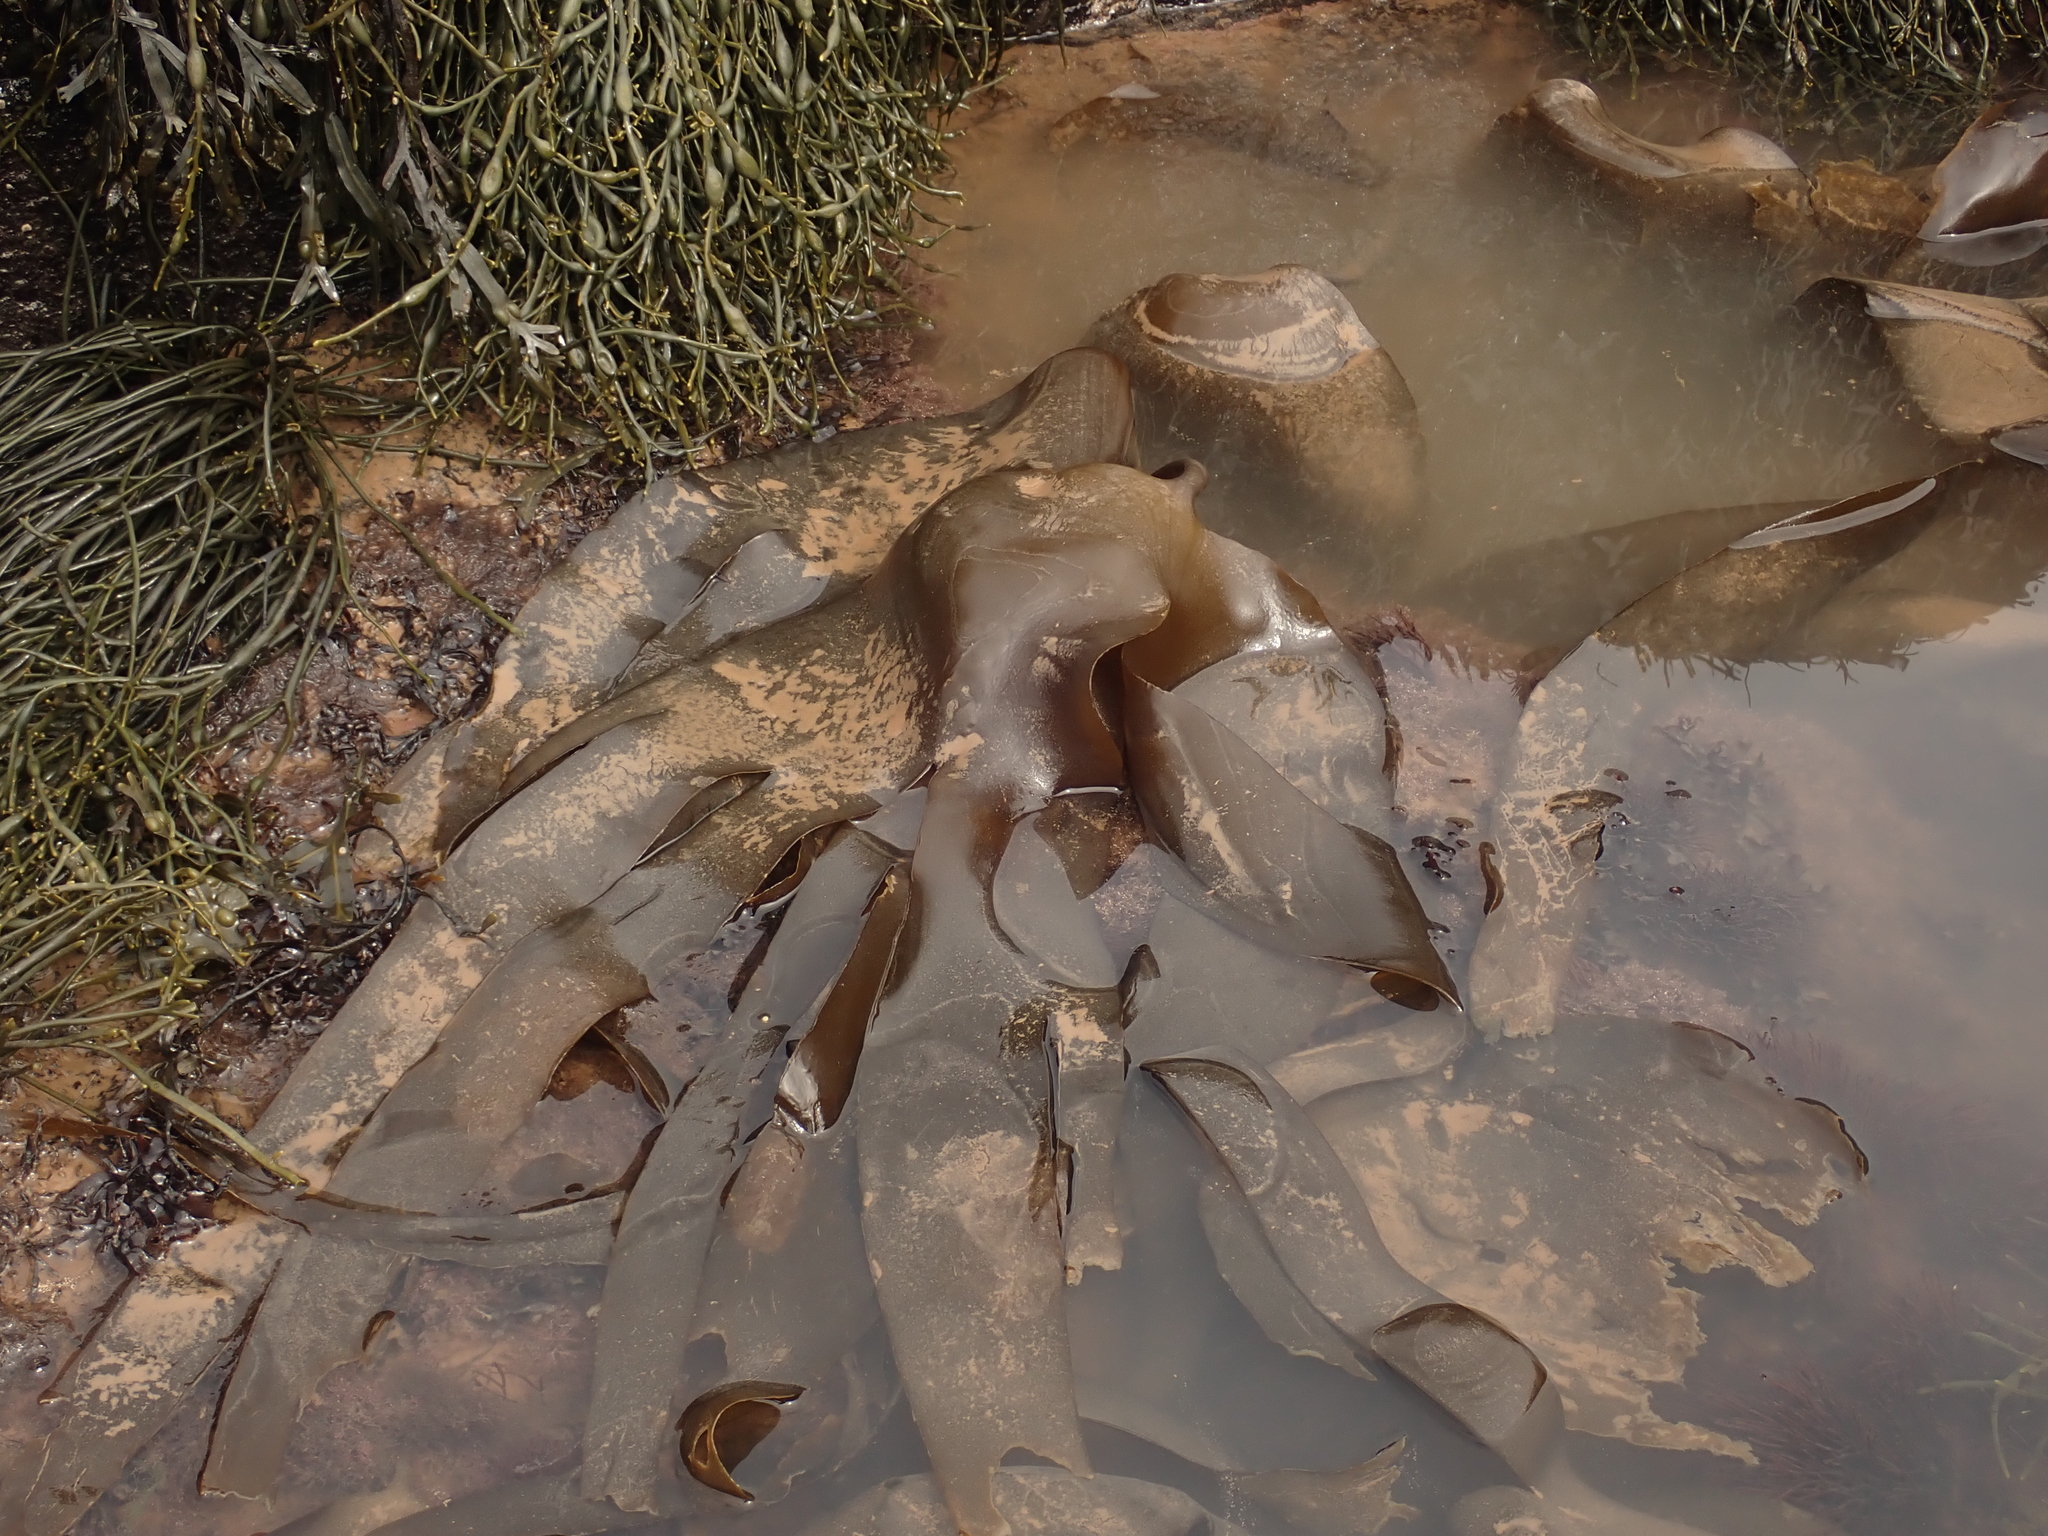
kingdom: Chromista
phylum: Ochrophyta
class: Phaeophyceae
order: Laminariales
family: Laminariaceae
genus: Laminaria
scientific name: Laminaria digitata
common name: Oarweed
